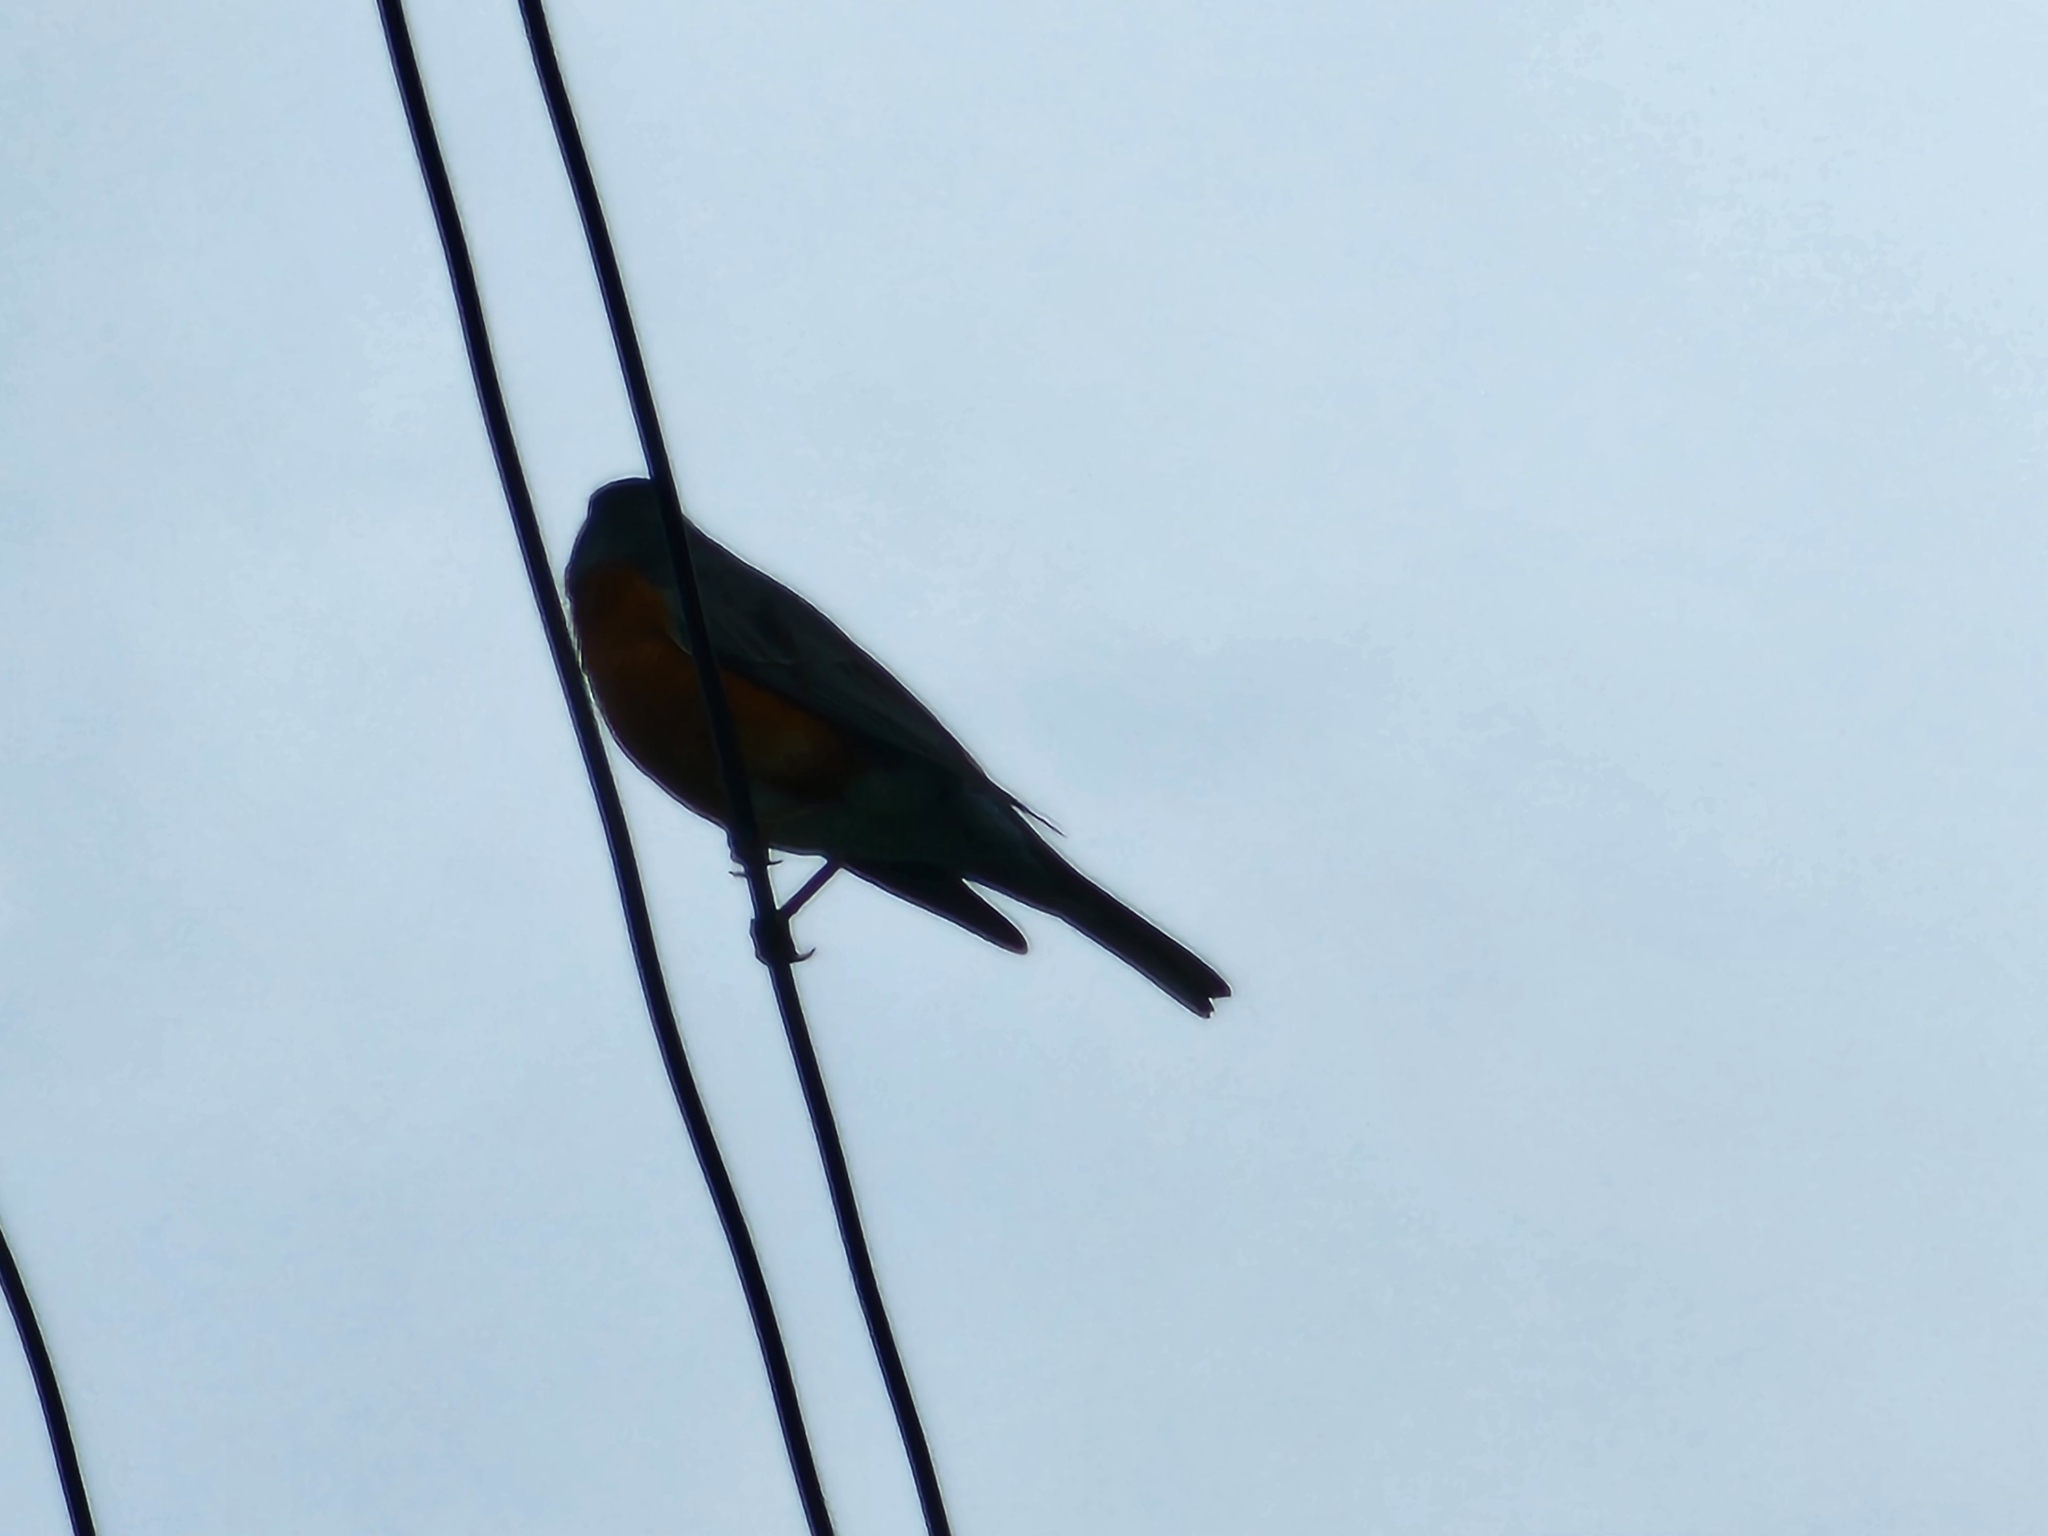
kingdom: Animalia
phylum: Chordata
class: Aves
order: Passeriformes
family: Turdidae
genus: Turdus
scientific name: Turdus migratorius
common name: American robin
